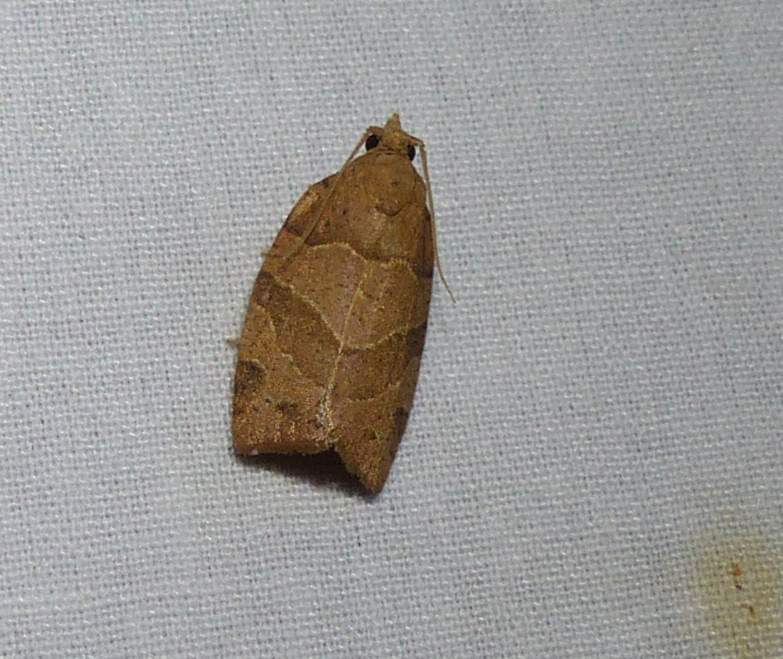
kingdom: Animalia
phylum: Arthropoda
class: Insecta
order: Lepidoptera
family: Tortricidae
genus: Pandemis
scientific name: Pandemis limitata
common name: Three-lined leafroller moth
